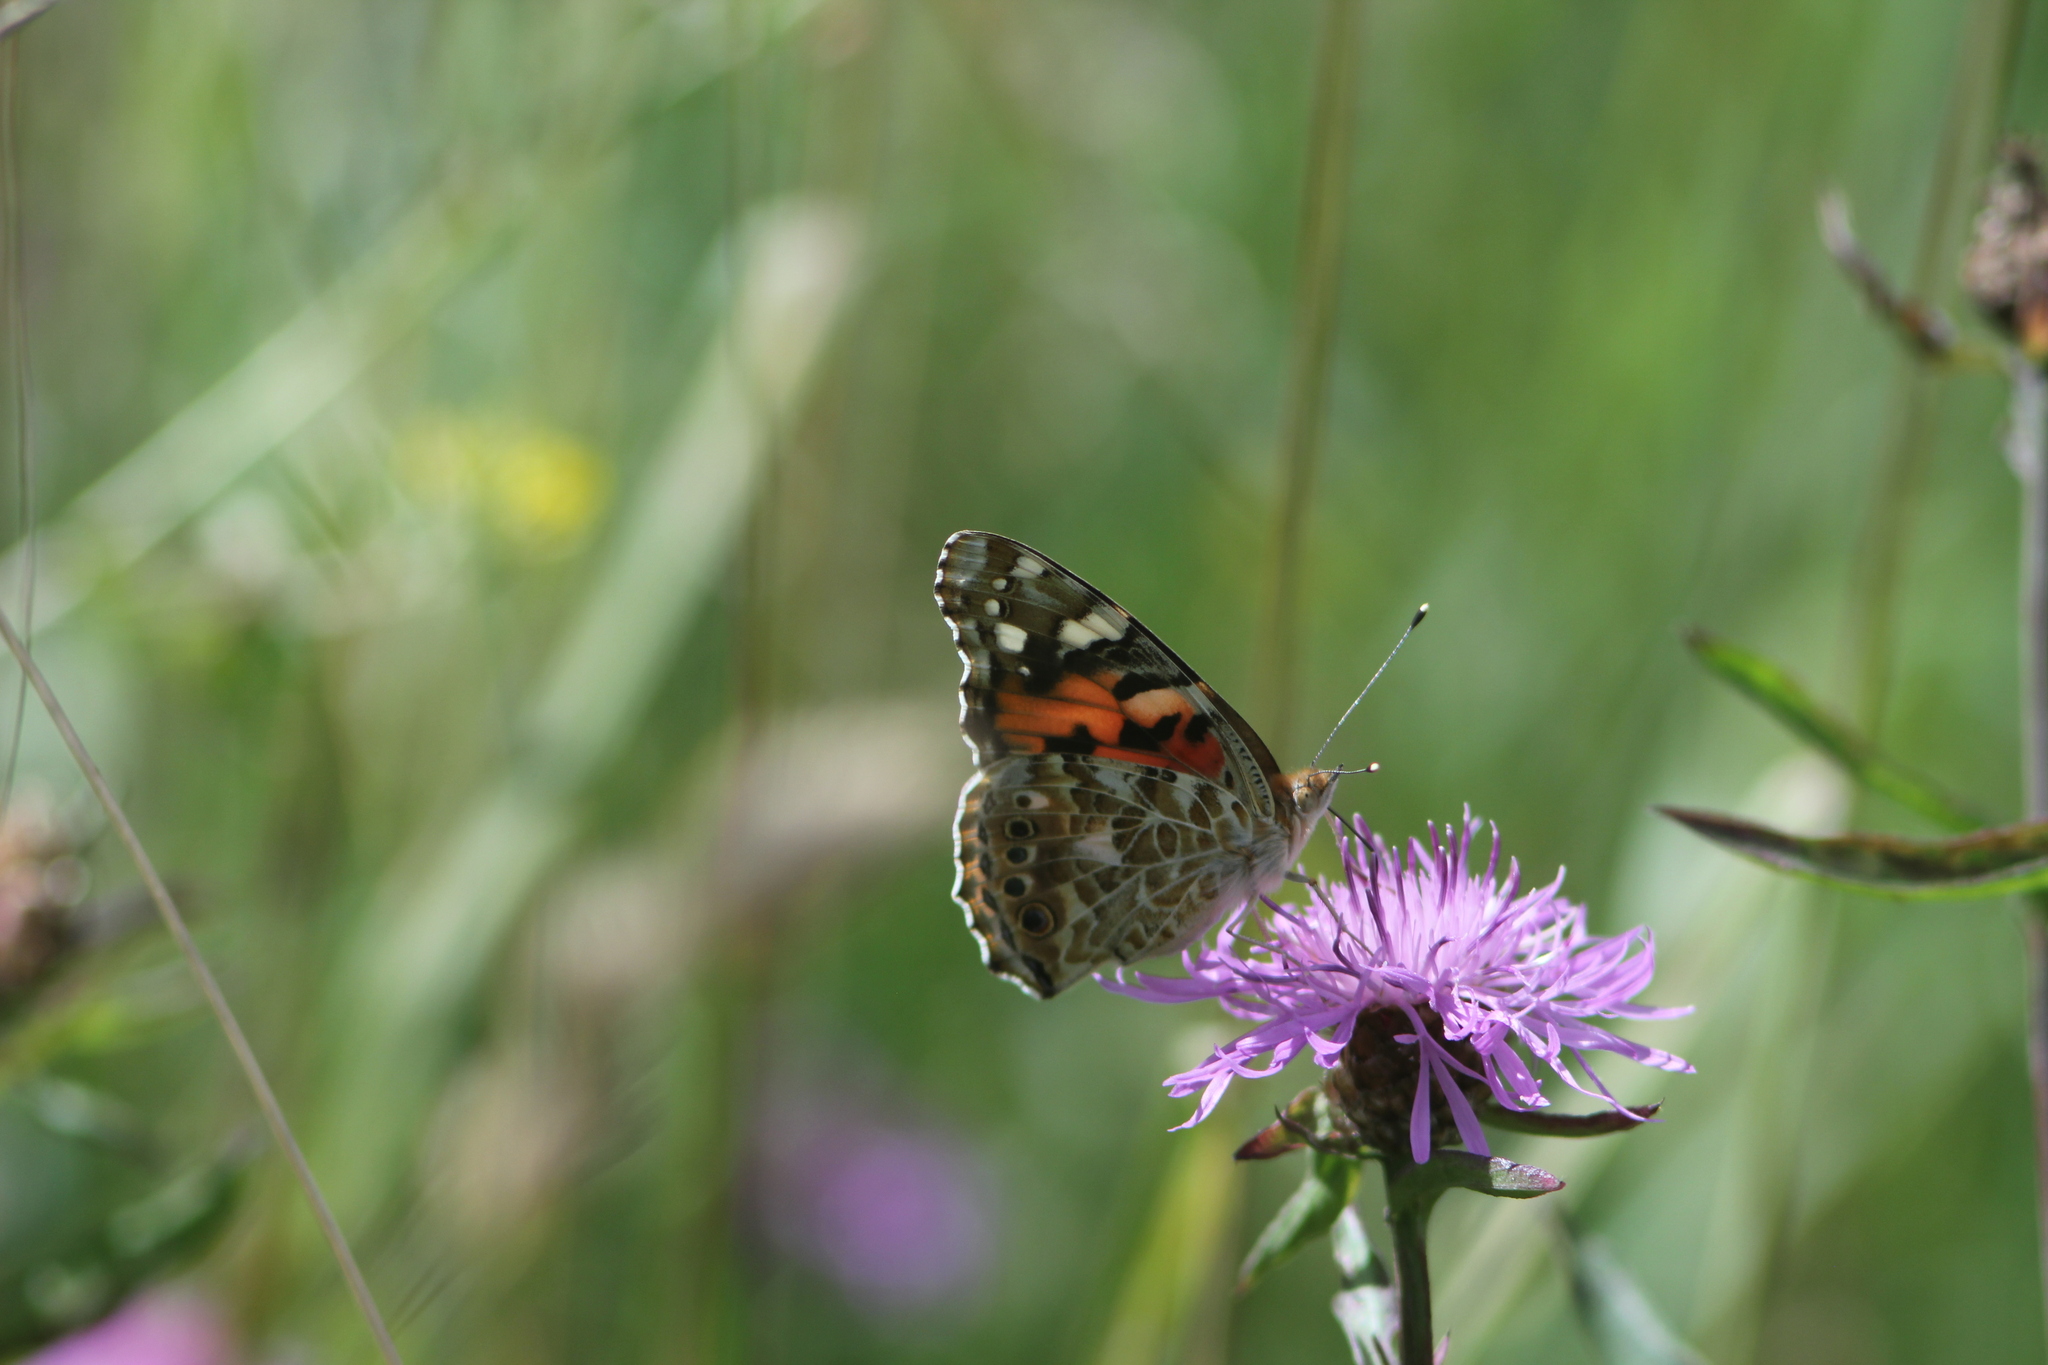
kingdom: Animalia
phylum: Arthropoda
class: Insecta
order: Lepidoptera
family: Nymphalidae
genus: Vanessa
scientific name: Vanessa cardui
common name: Painted lady
